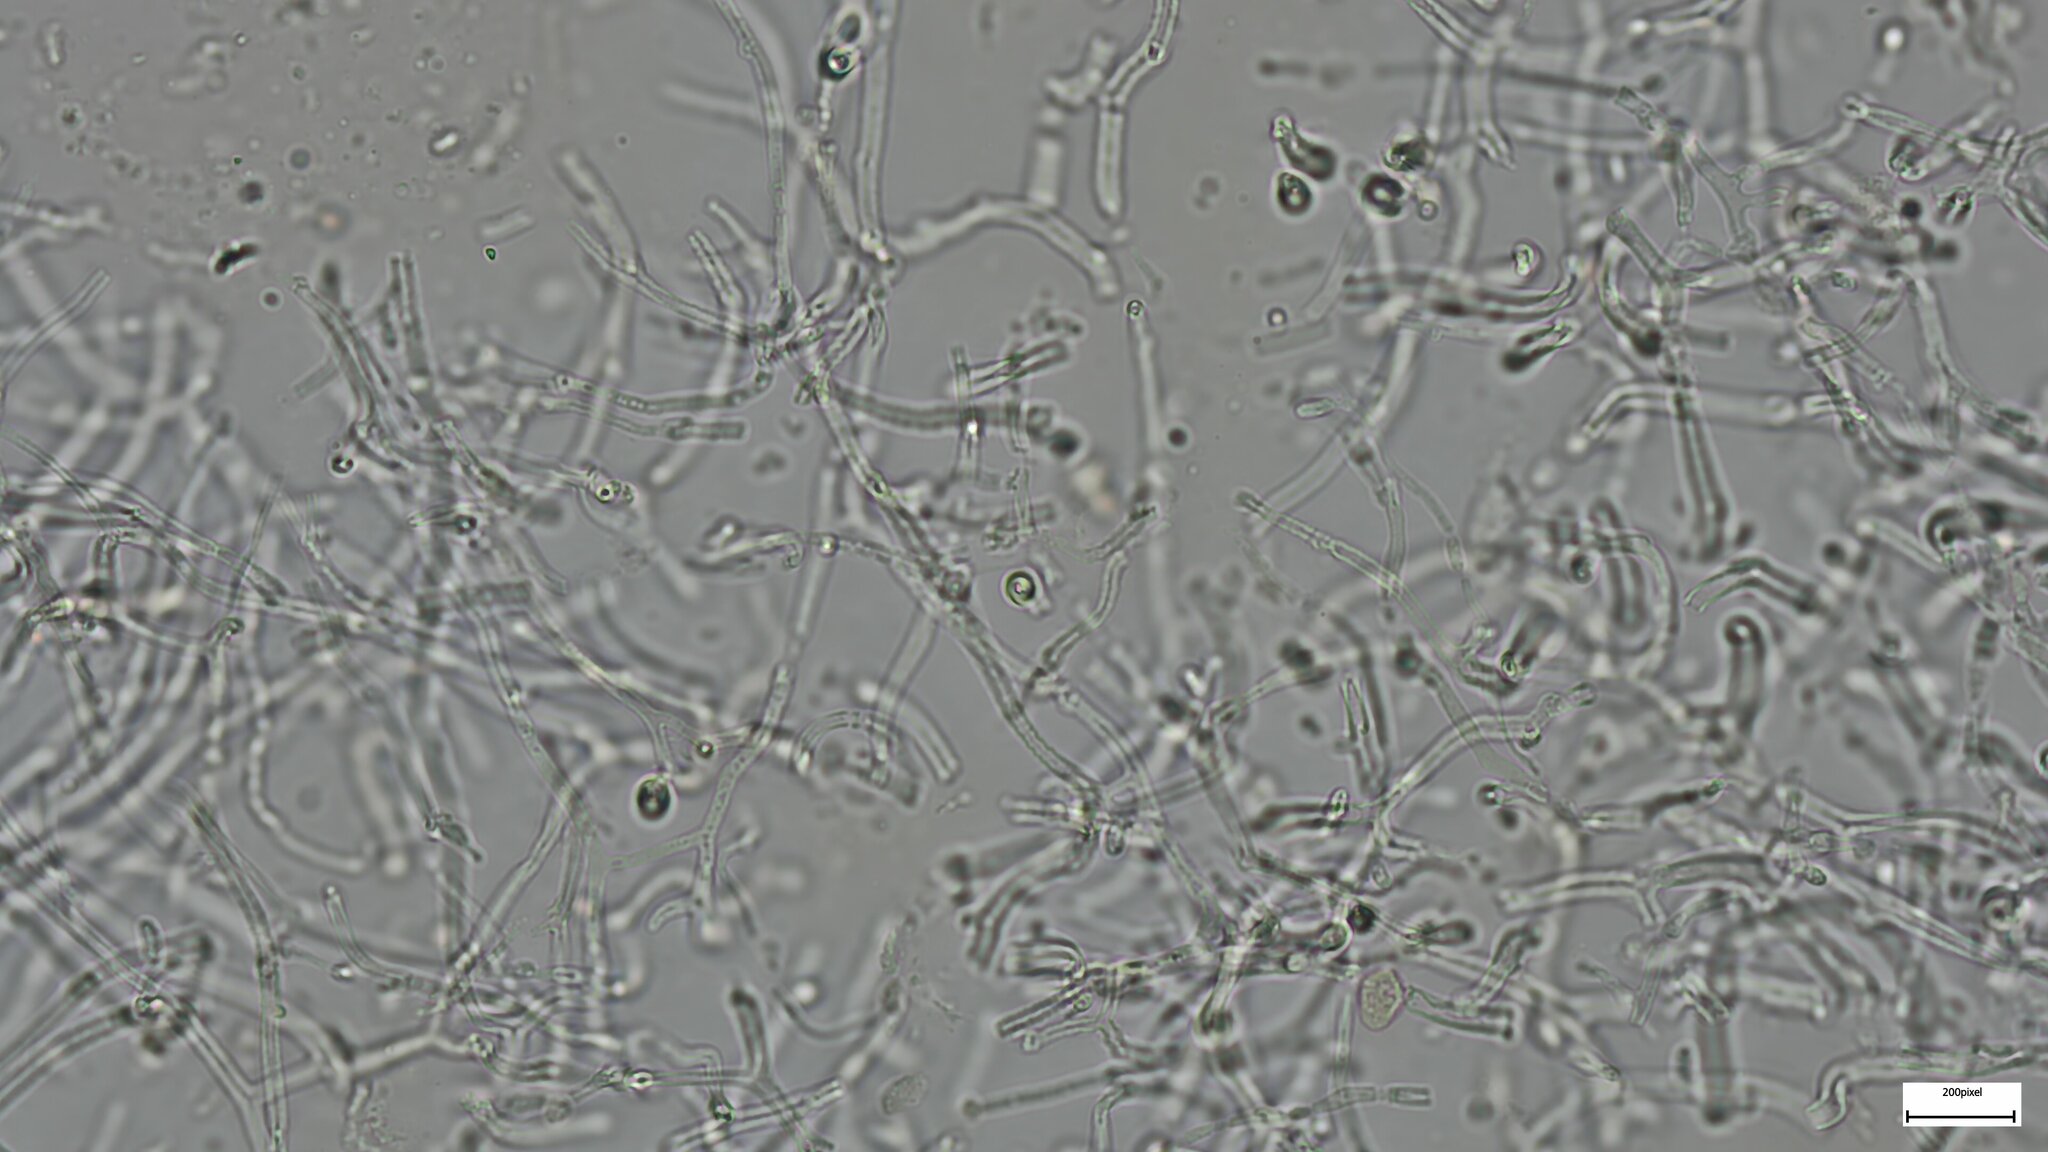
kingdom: Fungi
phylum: Basidiomycota
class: Tremellomycetes
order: Tremellales
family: Tremellaceae
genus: Phaeotremella
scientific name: Phaeotremella fimbriata
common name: Brown witch's butter
